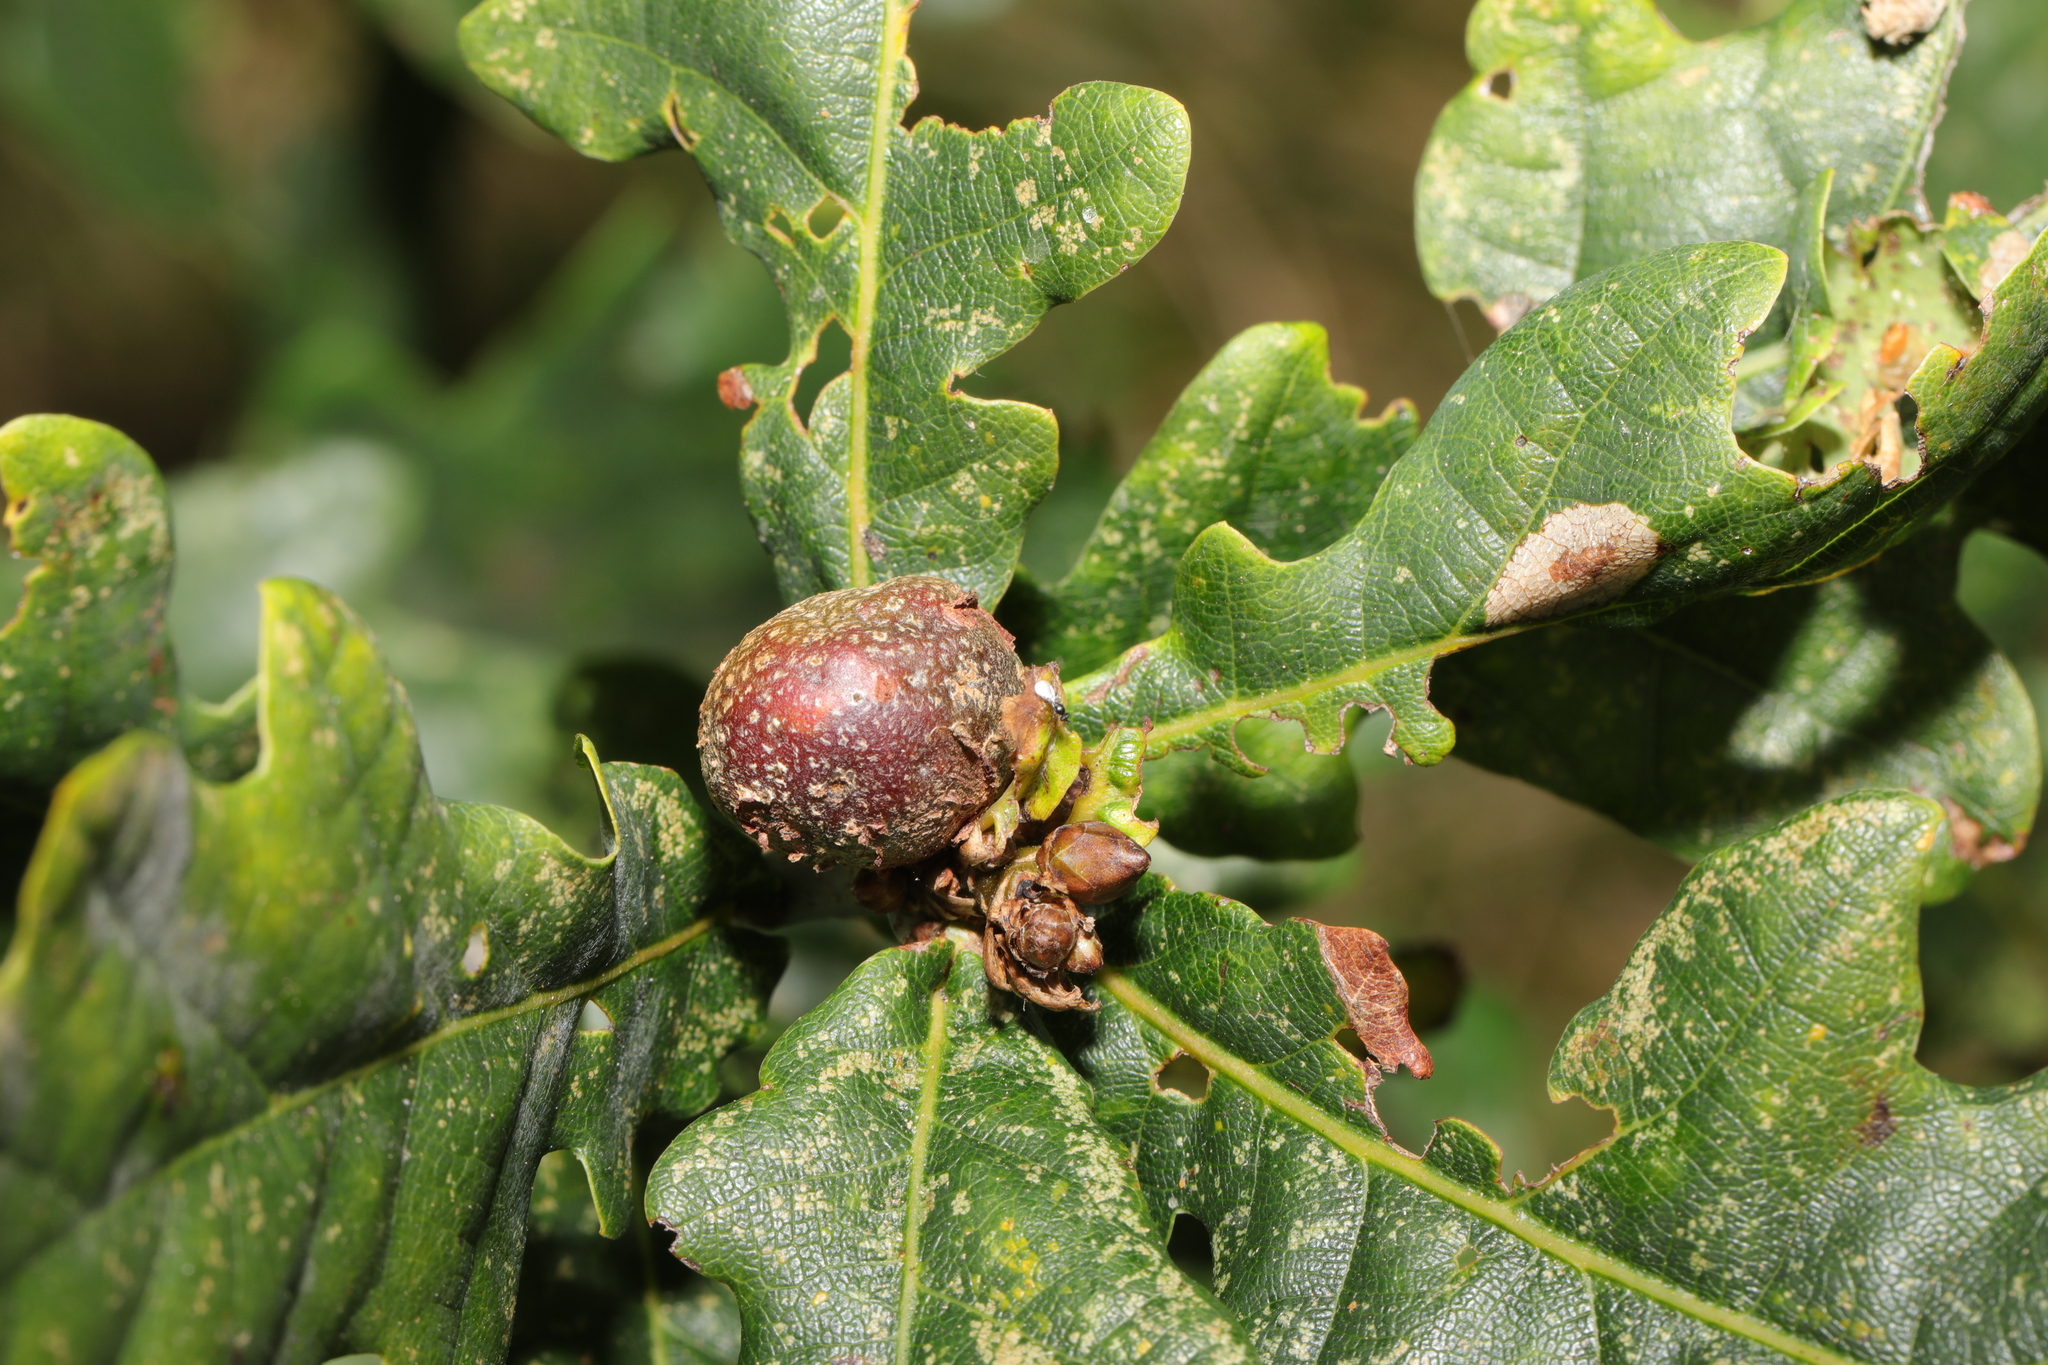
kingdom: Animalia
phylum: Arthropoda
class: Insecta
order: Hymenoptera
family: Cynipidae
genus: Andricus
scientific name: Andricus lignicolus
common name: Cola-nut gall
